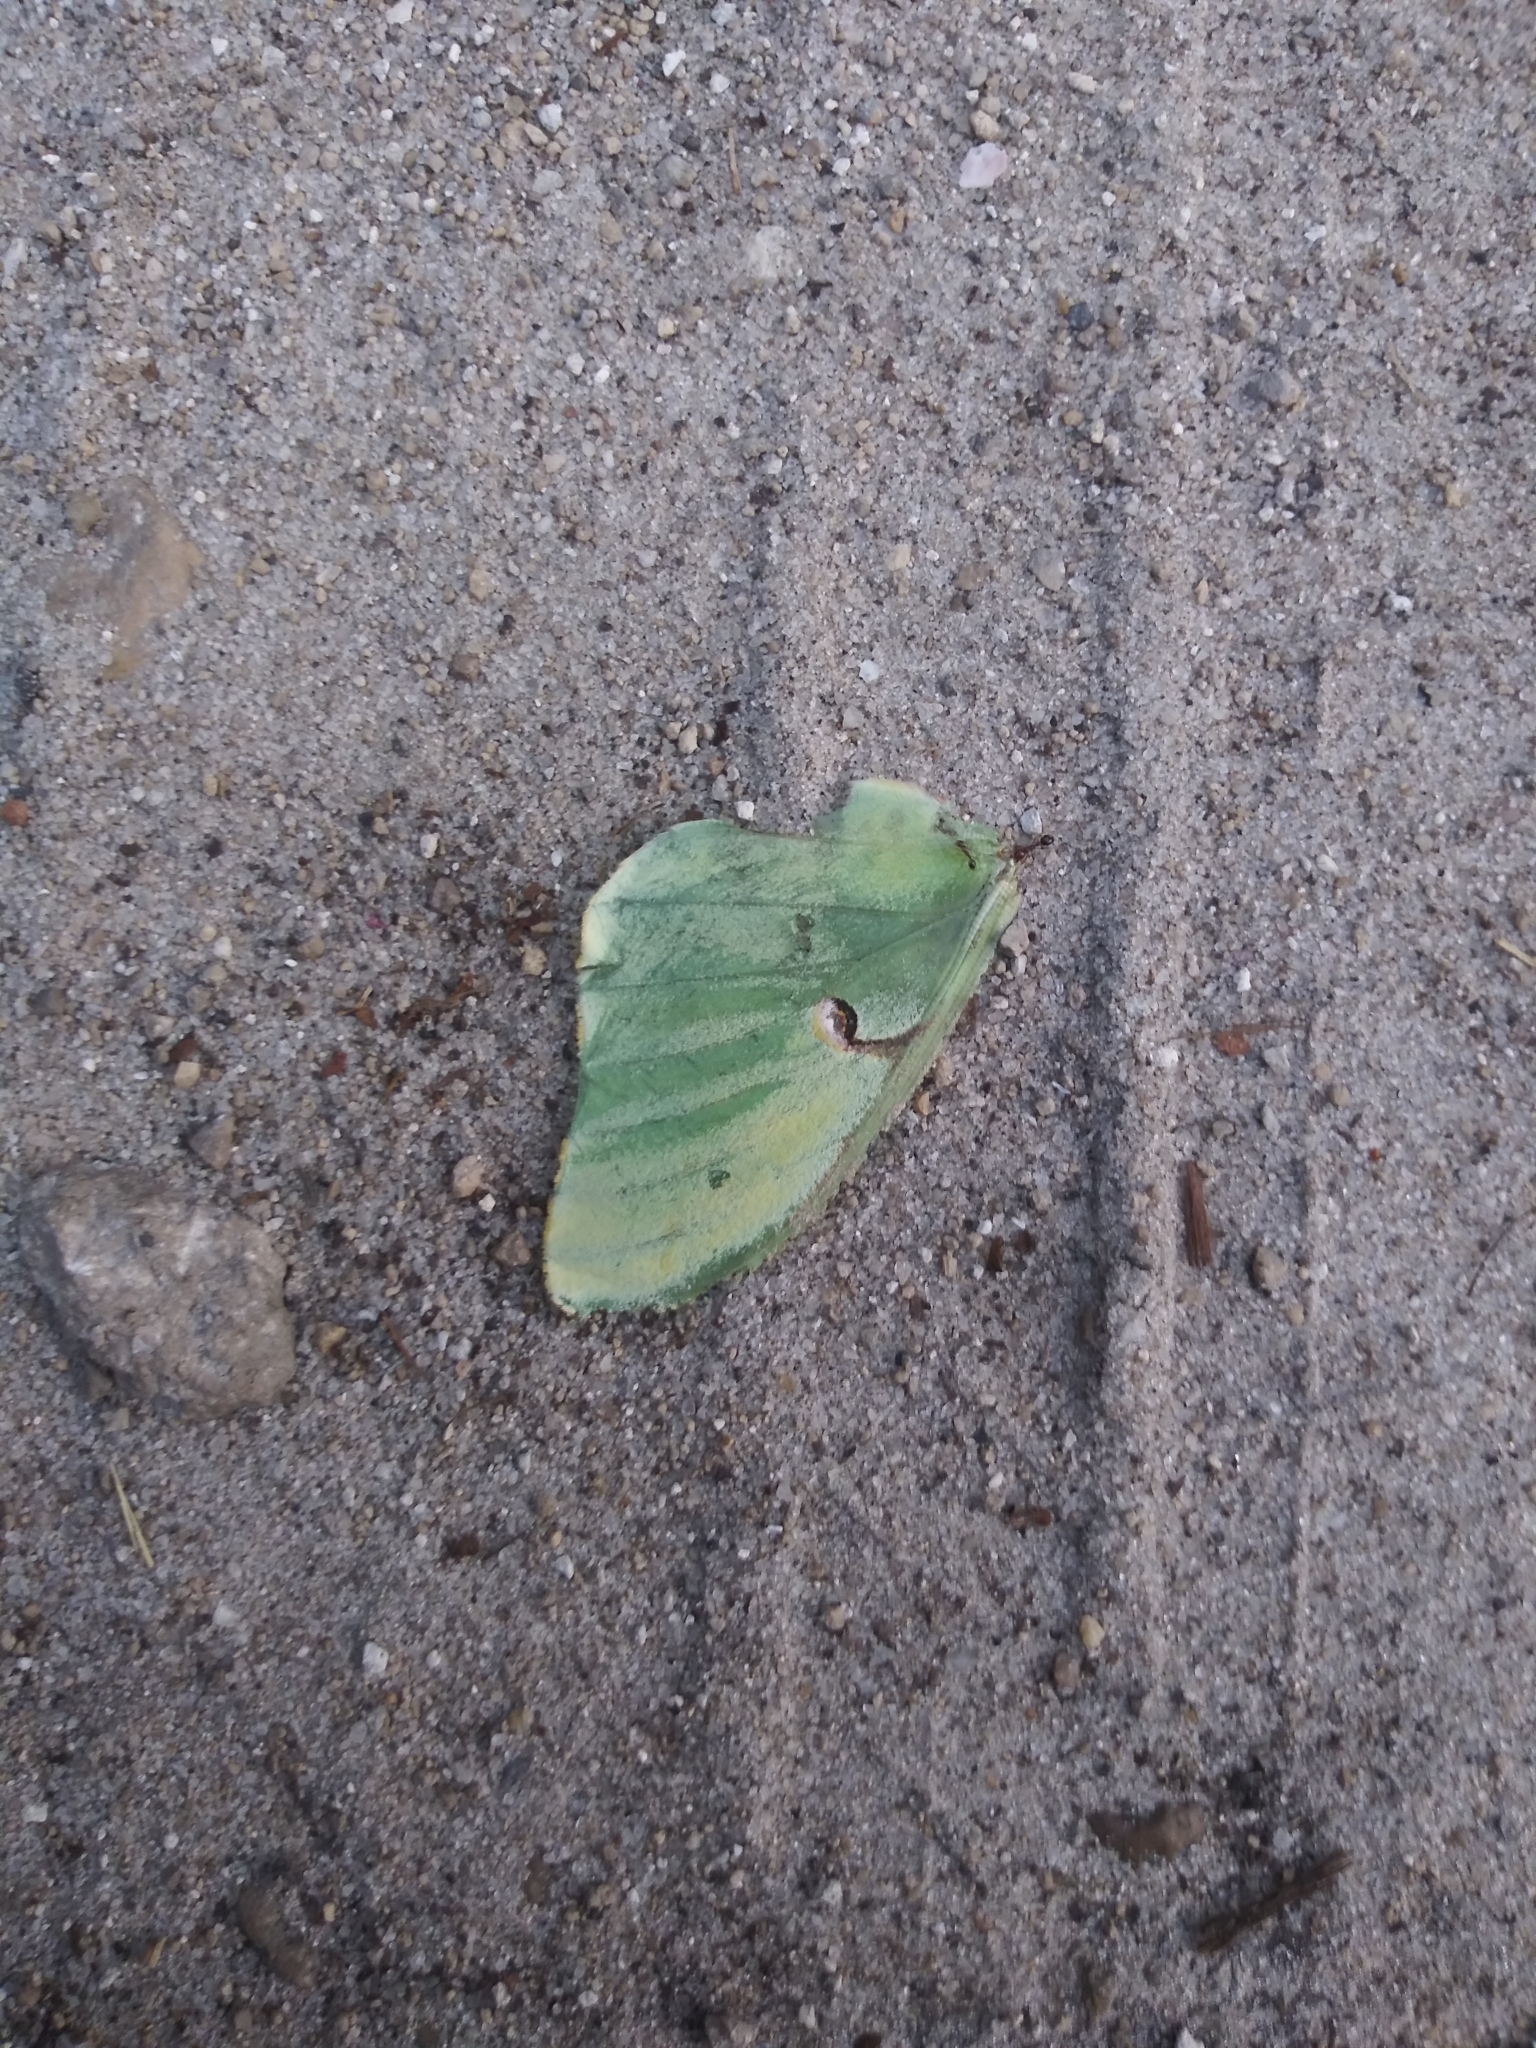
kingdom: Animalia
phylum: Arthropoda
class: Insecta
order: Lepidoptera
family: Saturniidae
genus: Actias
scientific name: Actias luna
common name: Luna moth
